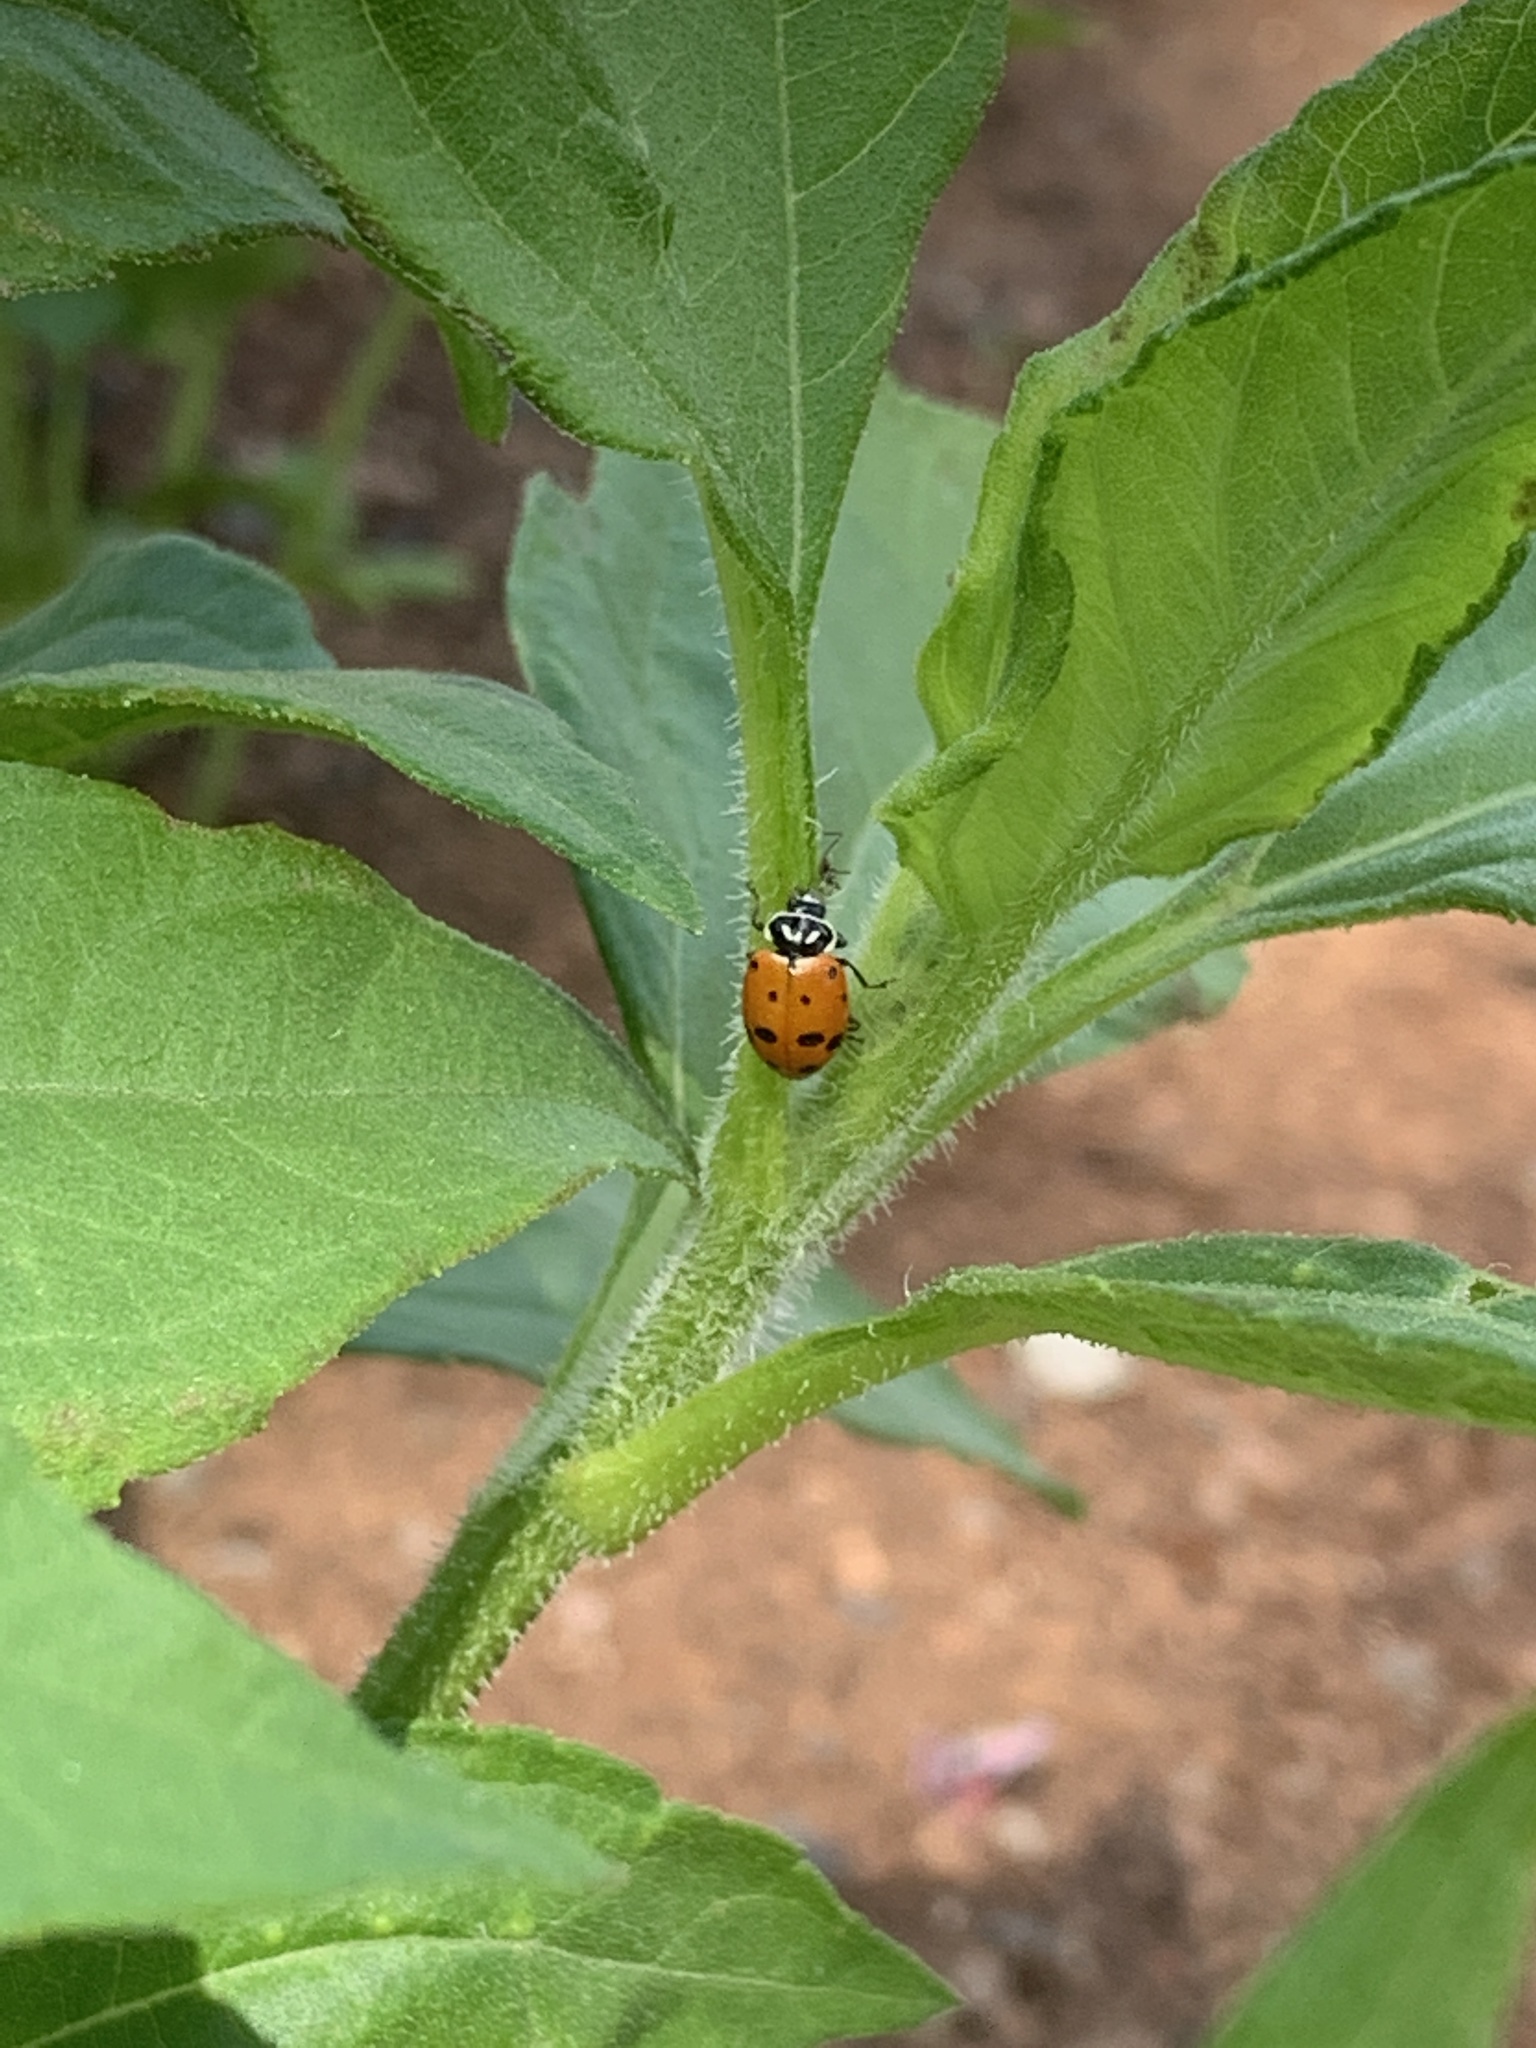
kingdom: Animalia
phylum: Arthropoda
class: Insecta
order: Coleoptera
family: Coccinellidae
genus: Hippodamia
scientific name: Hippodamia convergens
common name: Convergent lady beetle
